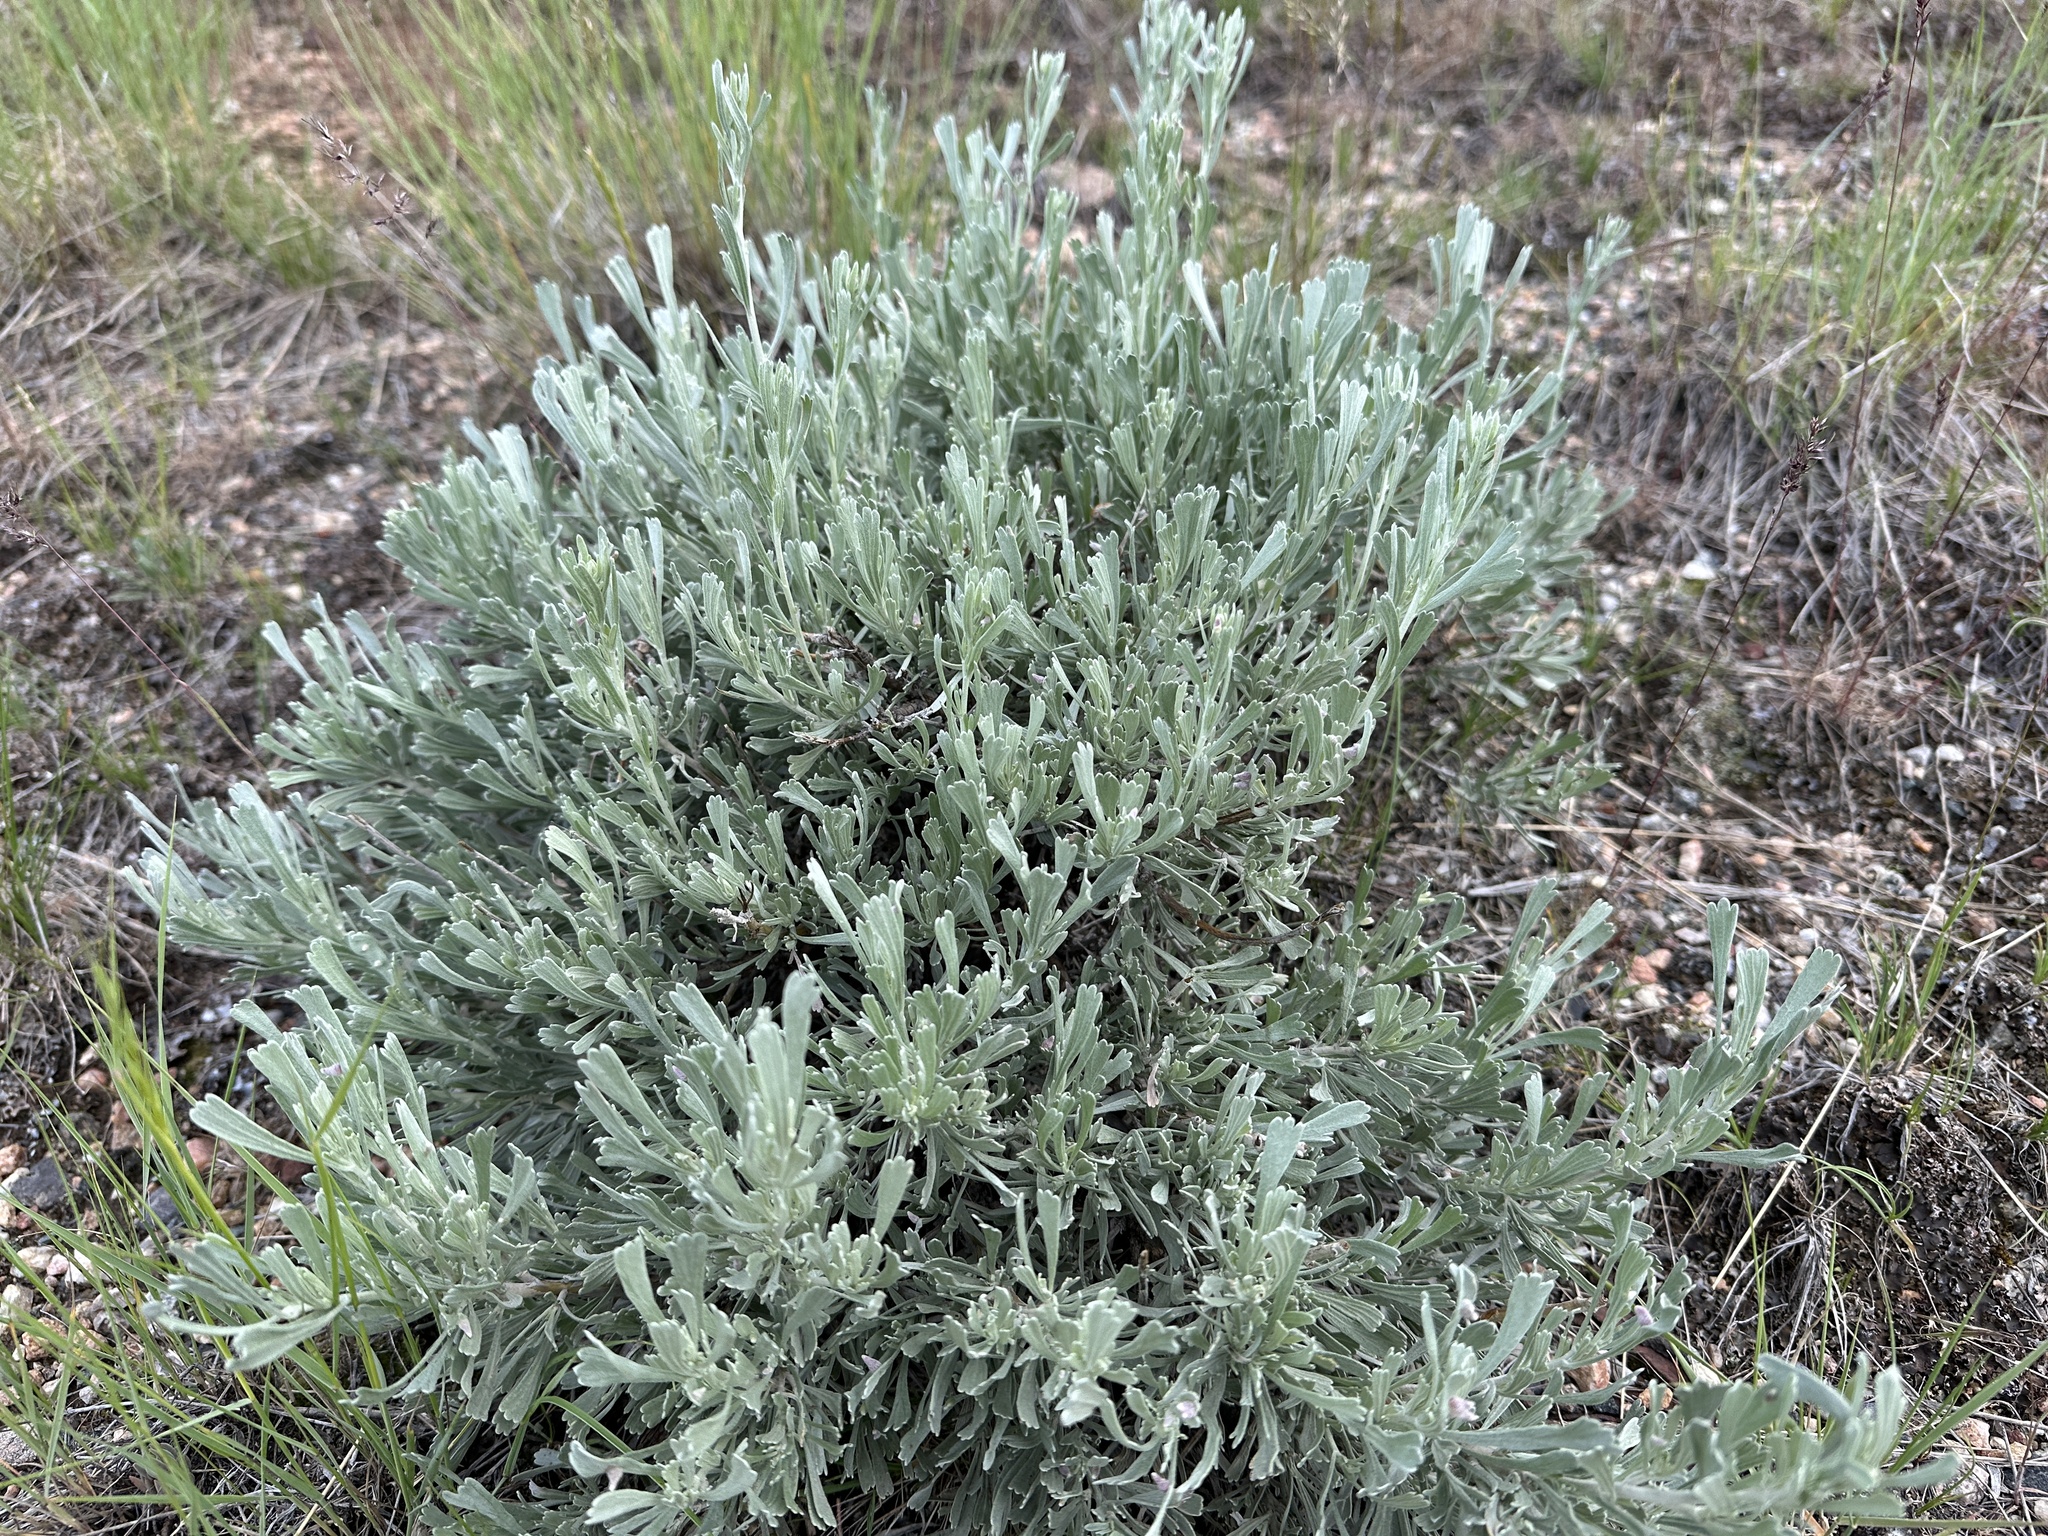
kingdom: Plantae
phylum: Tracheophyta
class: Magnoliopsida
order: Asterales
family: Asteraceae
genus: Artemisia
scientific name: Artemisia tridentata
